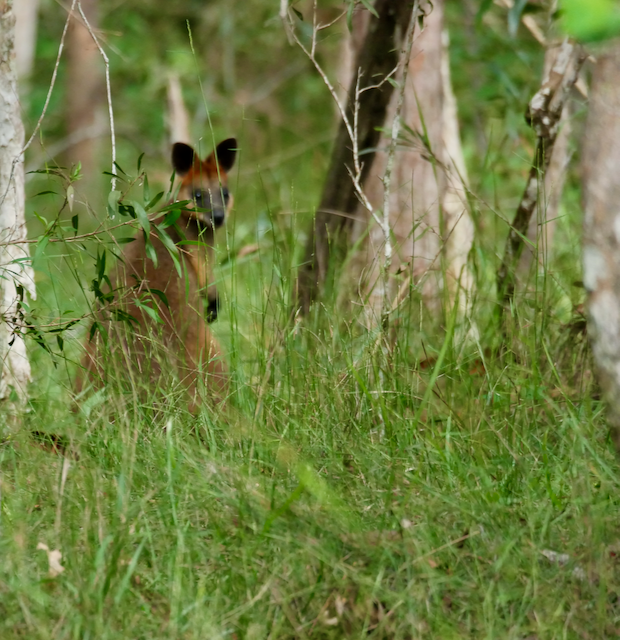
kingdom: Animalia
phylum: Chordata
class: Mammalia
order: Diprotodontia
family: Macropodidae
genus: Wallabia
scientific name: Wallabia bicolor
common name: Swamp wallaby
